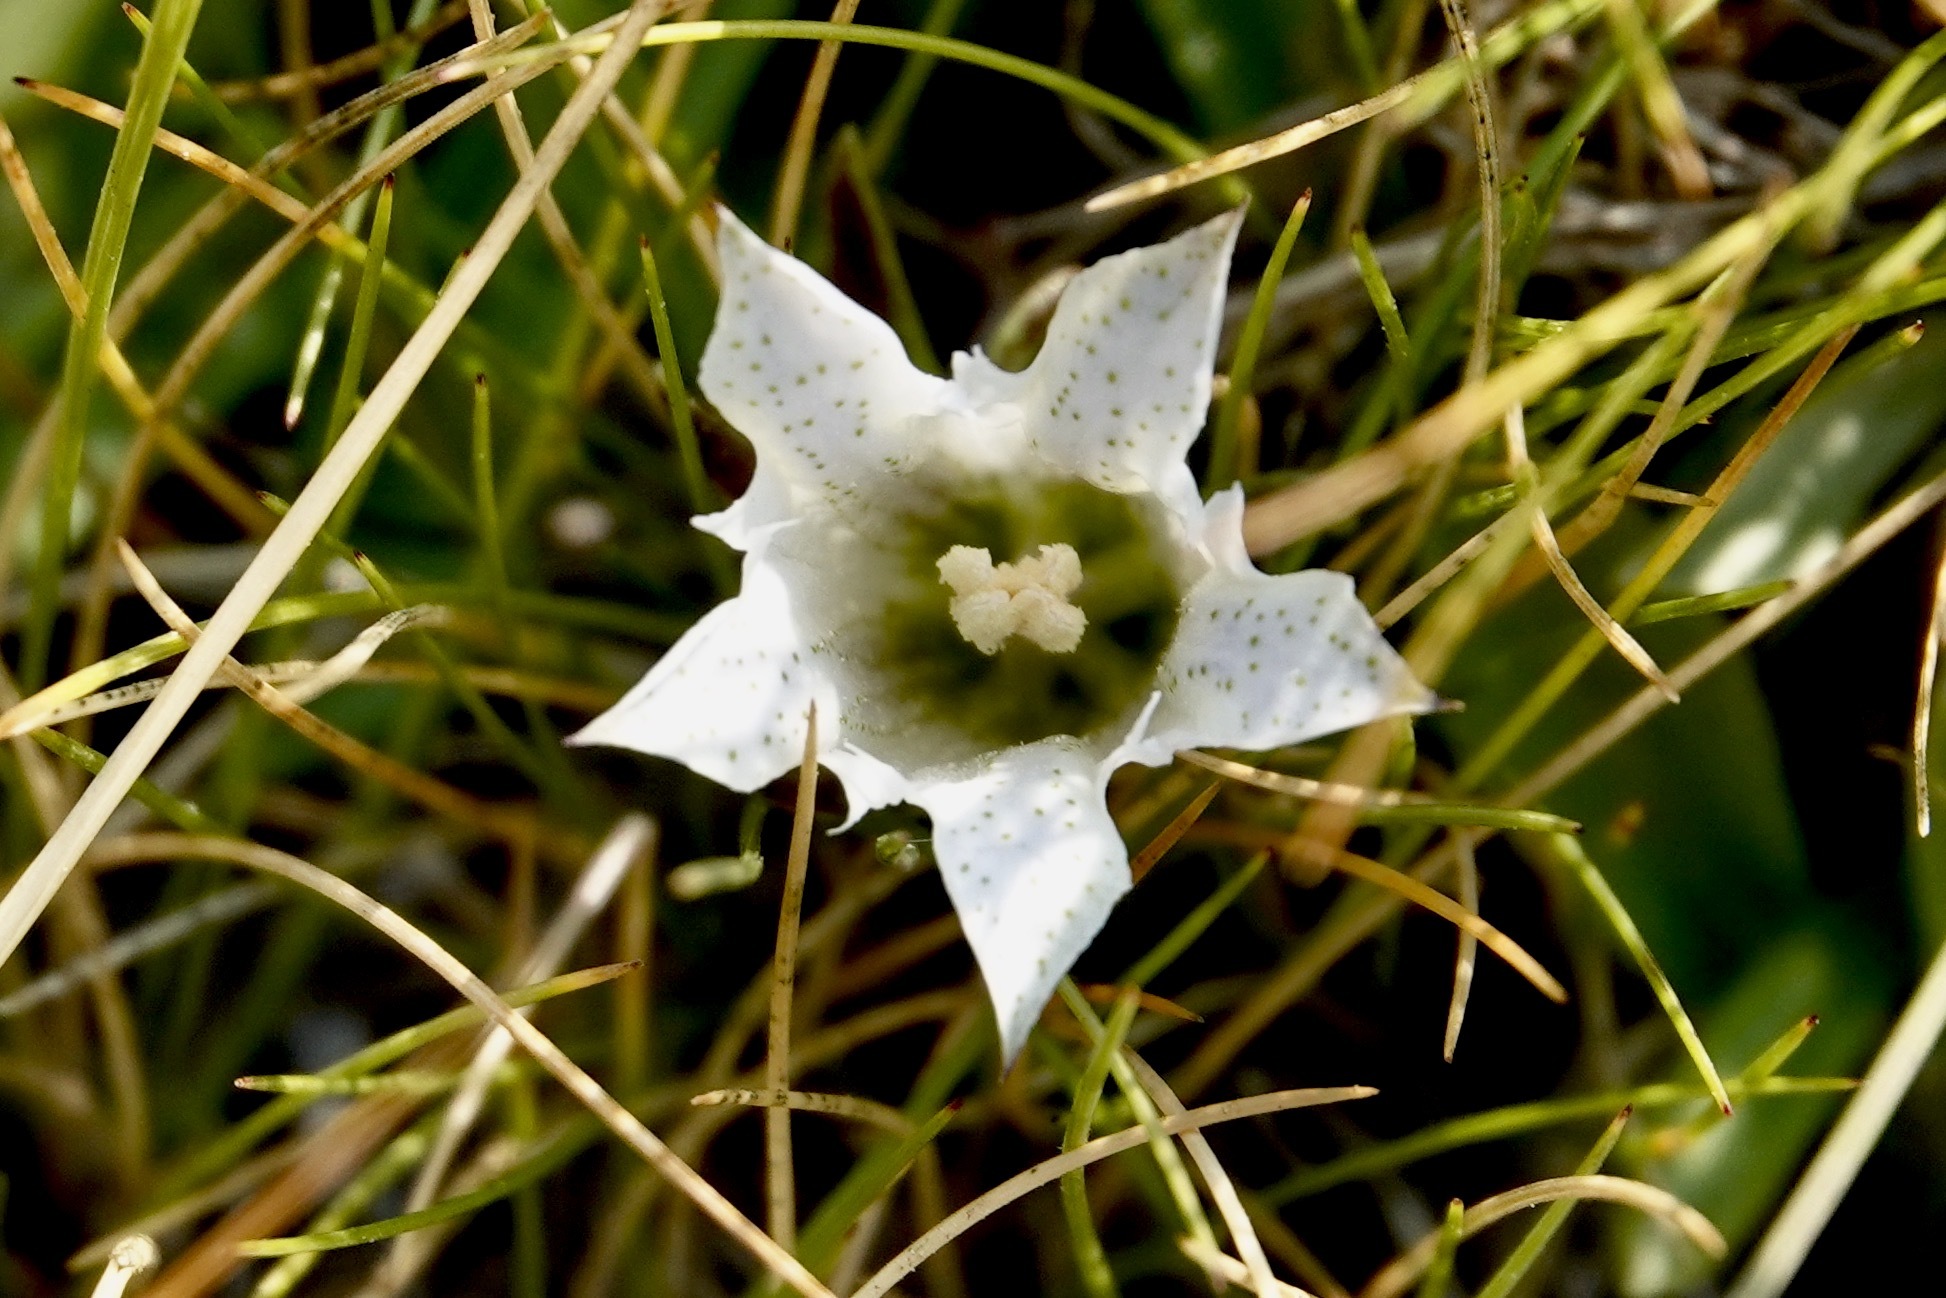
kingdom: Plantae
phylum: Tracheophyta
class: Magnoliopsida
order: Gentianales
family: Gentianaceae
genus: Gentiana
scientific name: Gentiana newberryi
